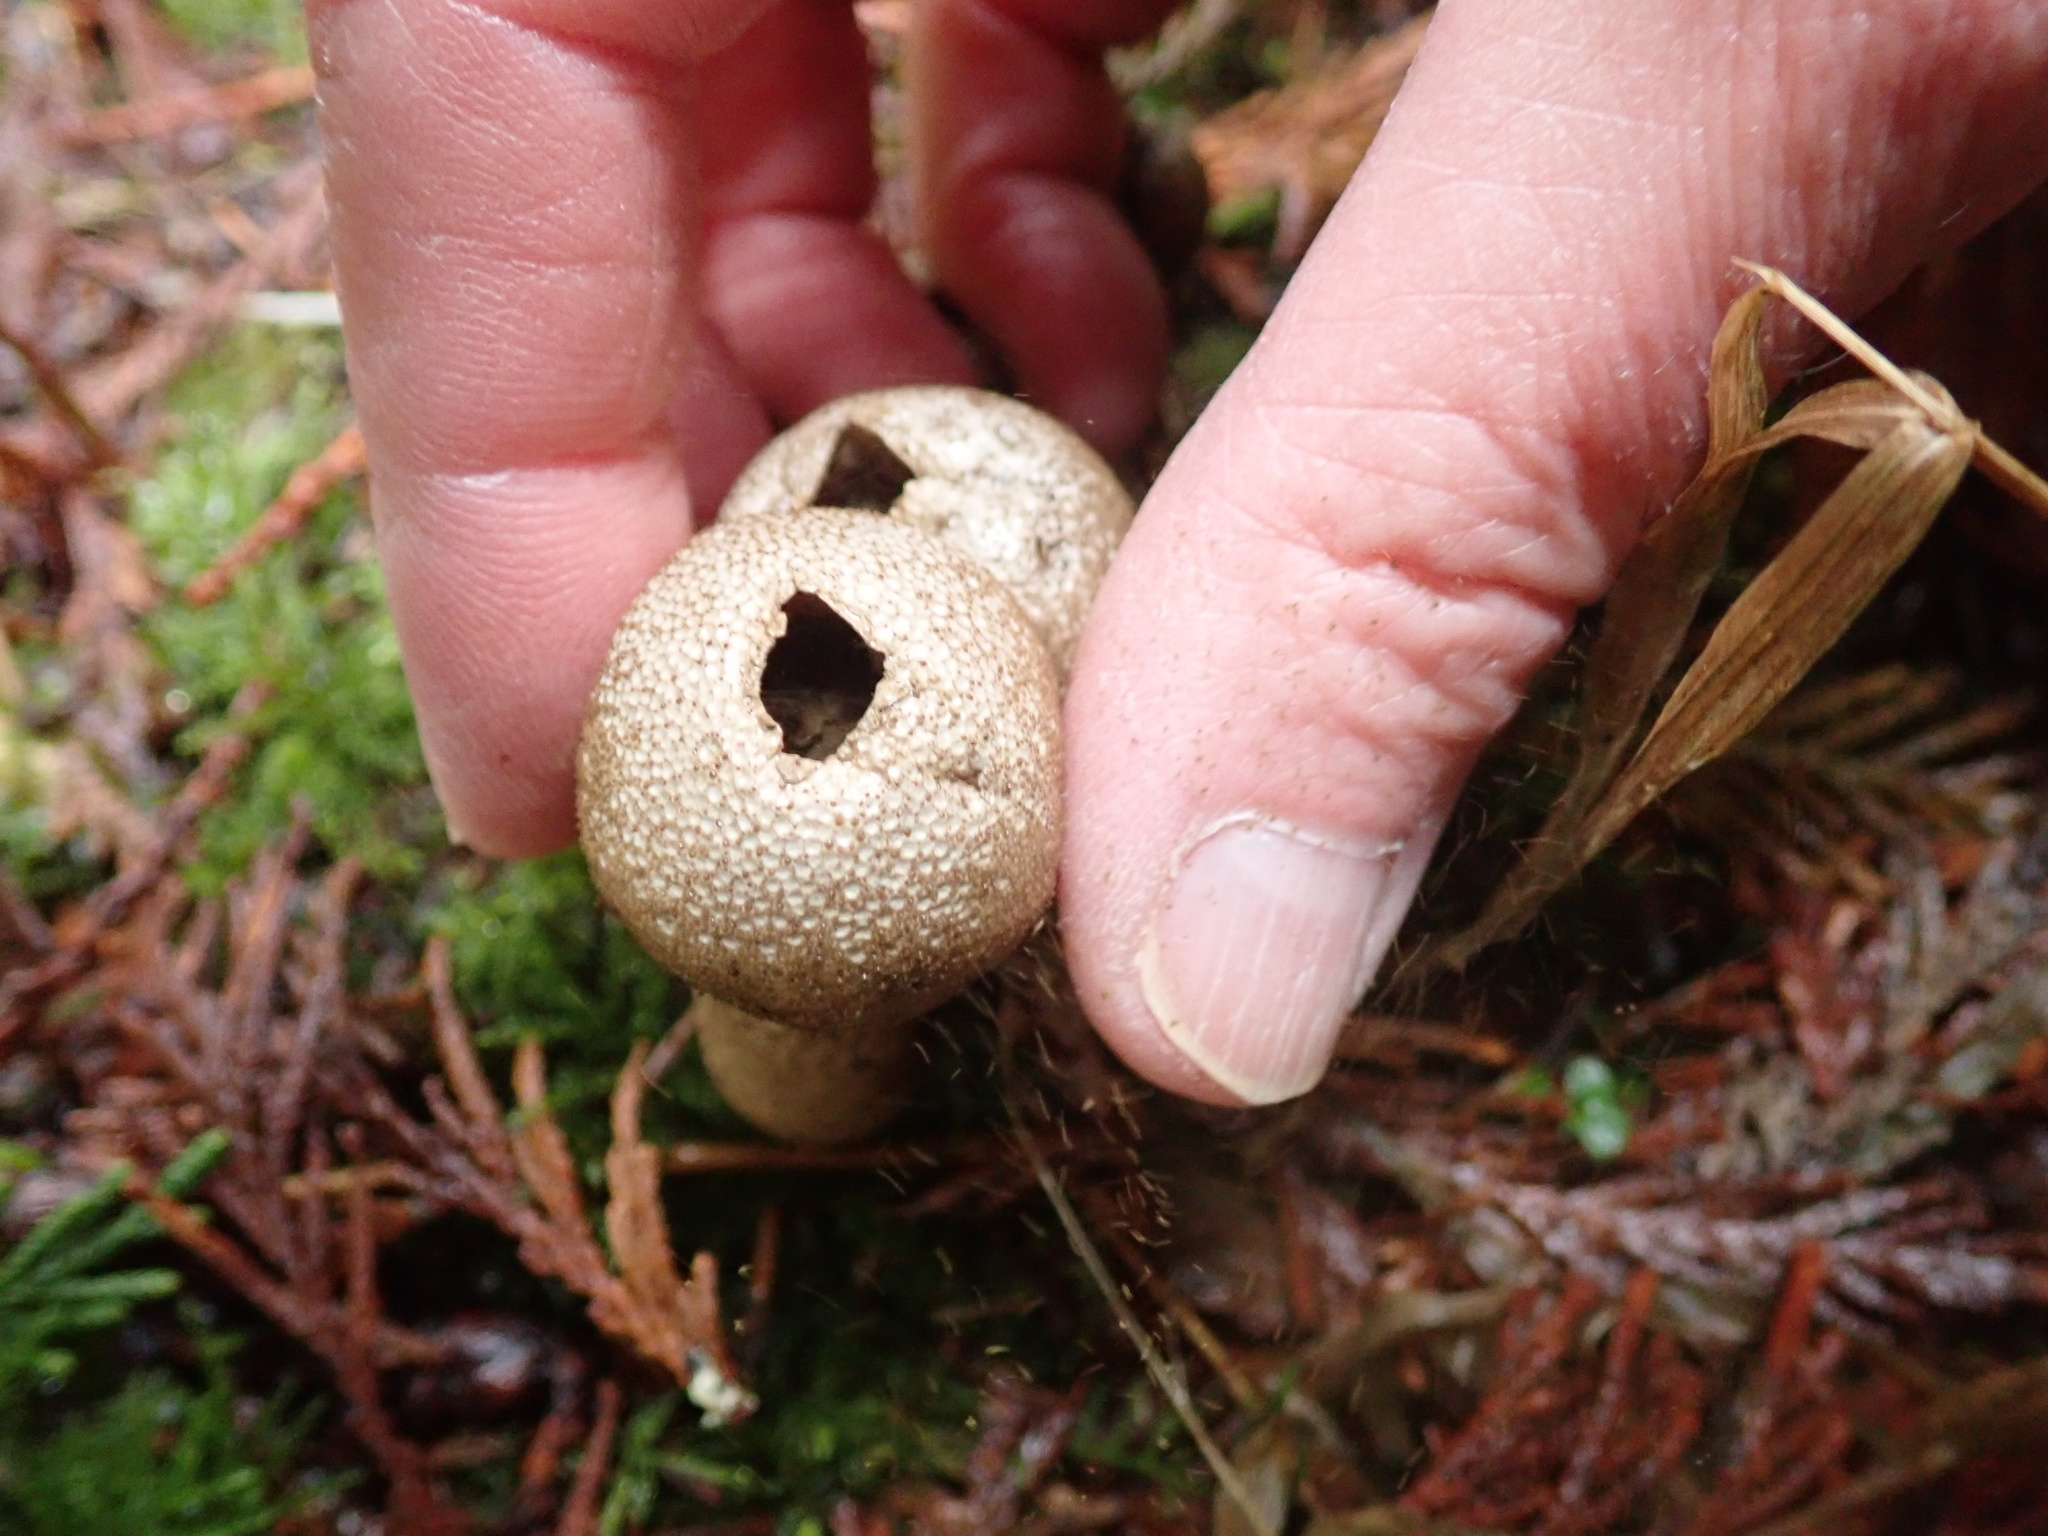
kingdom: Fungi
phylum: Basidiomycota
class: Agaricomycetes
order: Agaricales
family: Lycoperdaceae
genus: Lycoperdon
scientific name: Lycoperdon nettyanum
